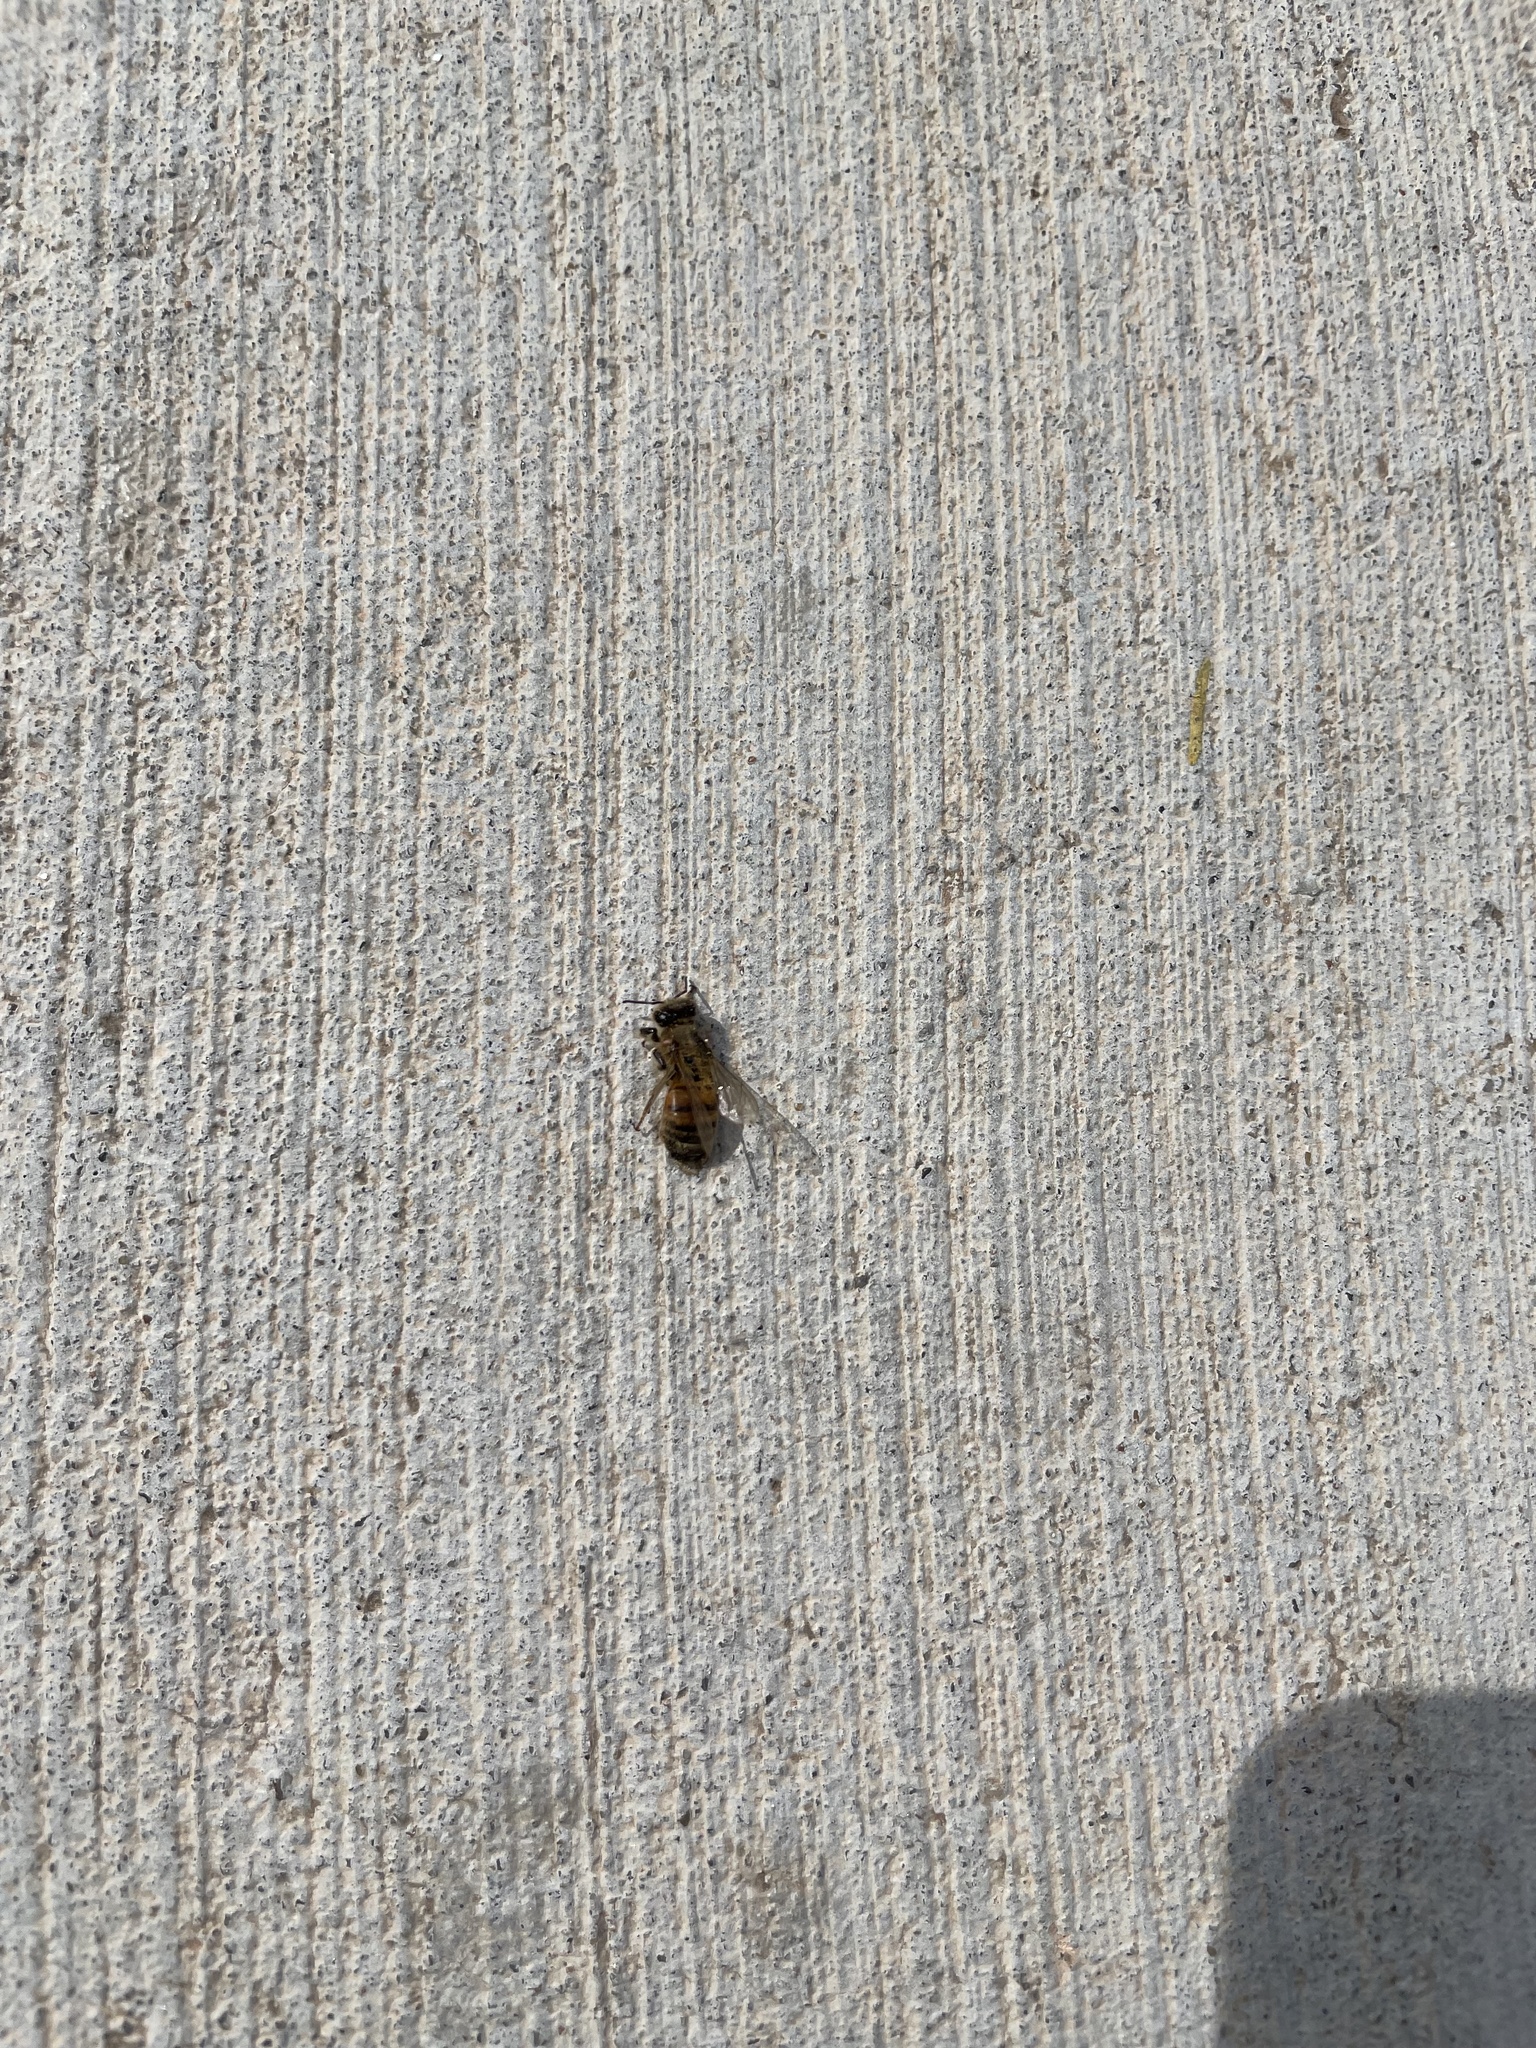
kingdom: Animalia
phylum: Arthropoda
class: Insecta
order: Hymenoptera
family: Apidae
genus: Apis
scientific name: Apis mellifera
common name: Honey bee
